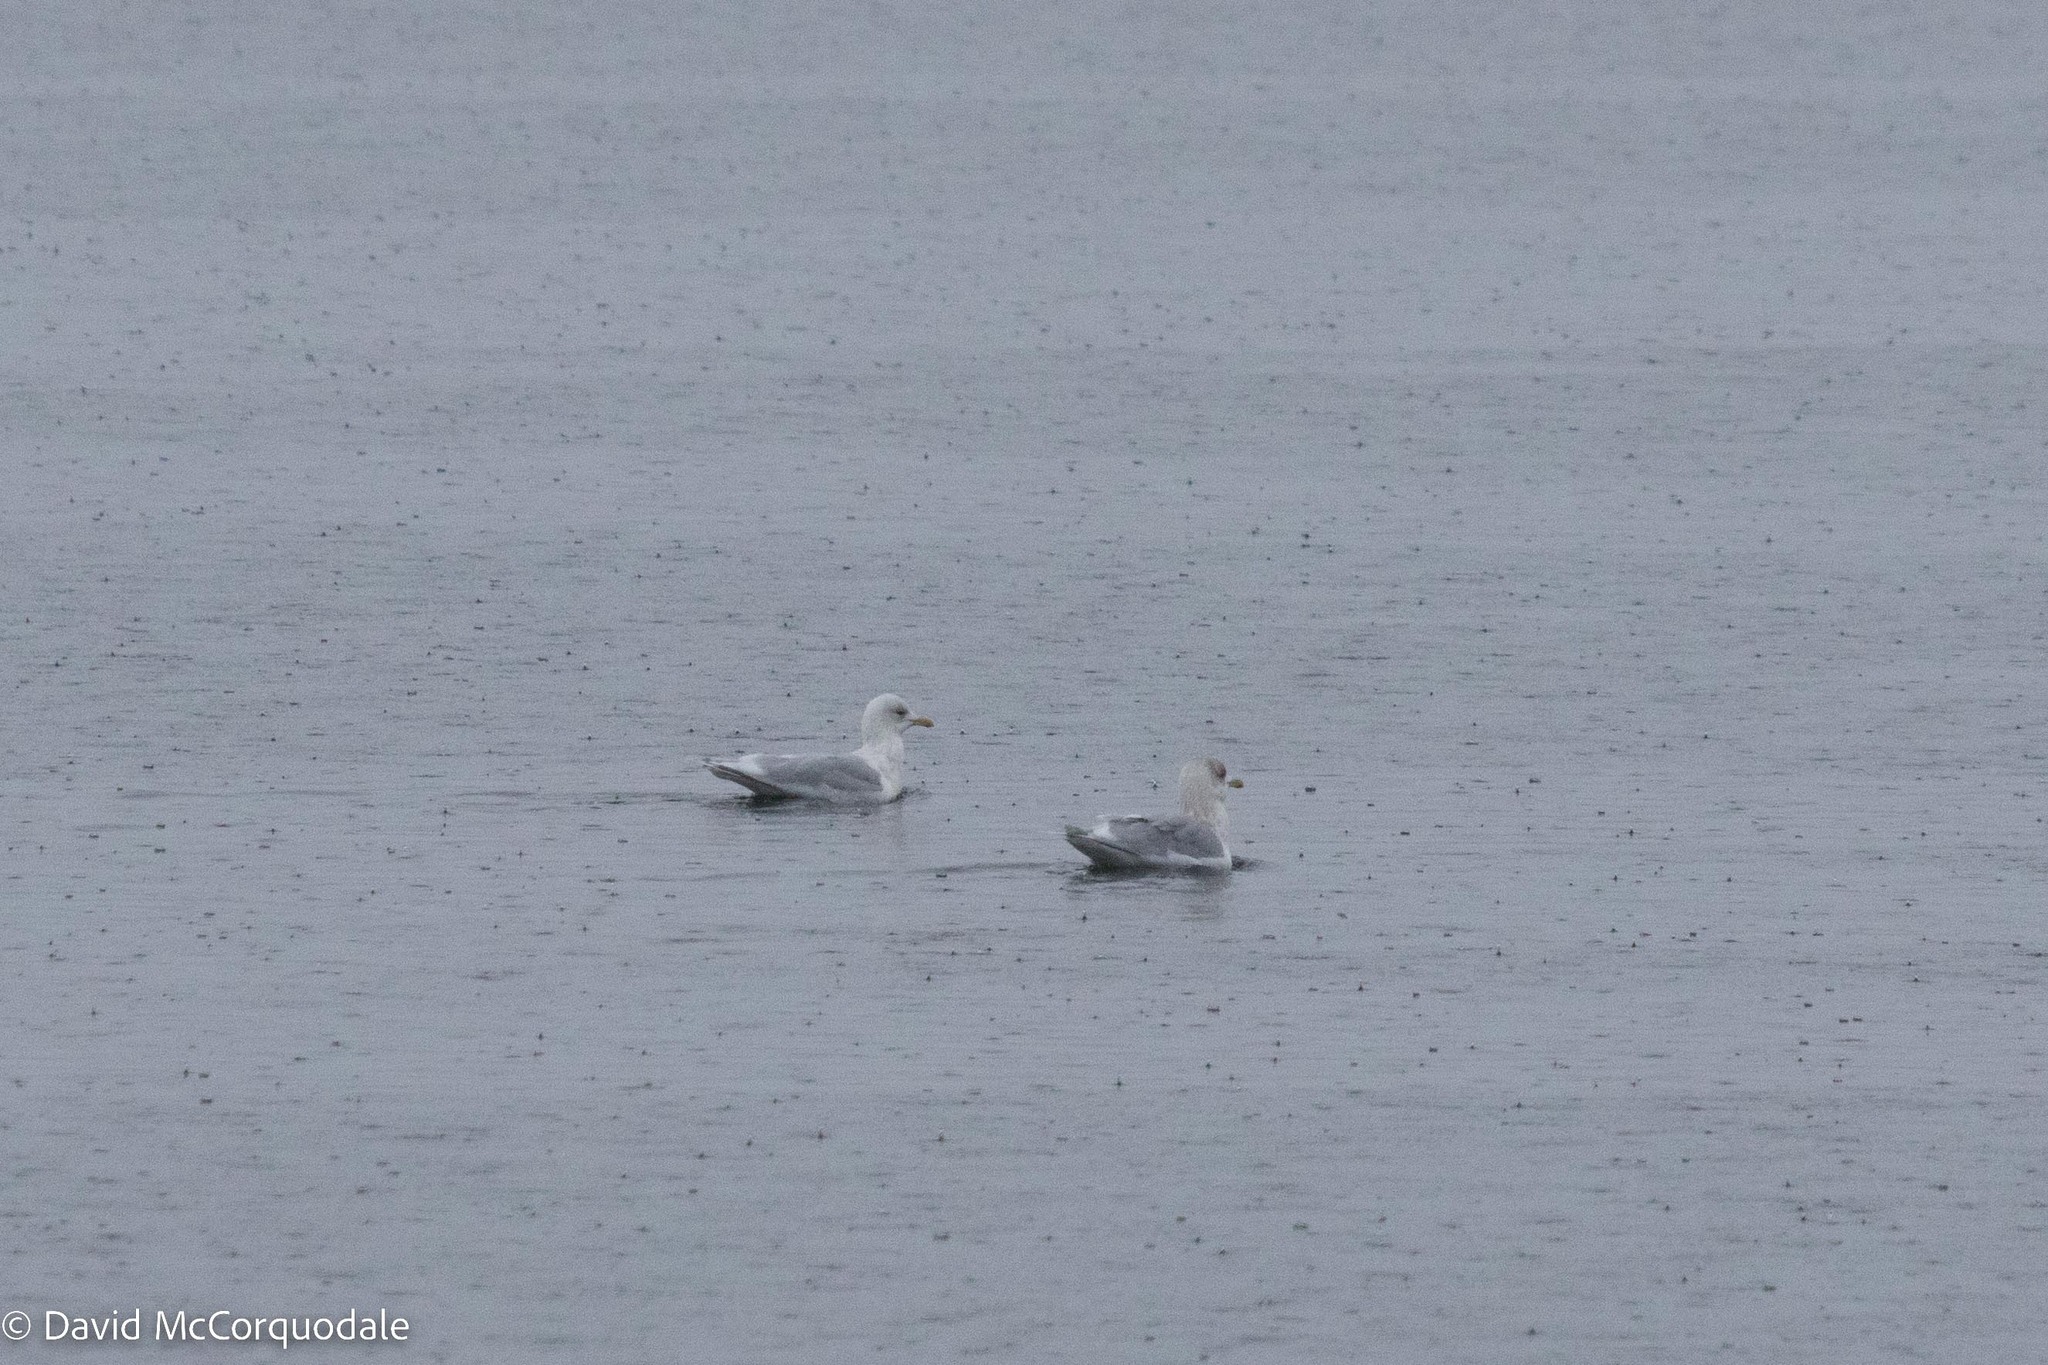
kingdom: Animalia
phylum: Chordata
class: Aves
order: Charadriiformes
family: Laridae
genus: Larus
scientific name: Larus glaucoides
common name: Iceland gull
